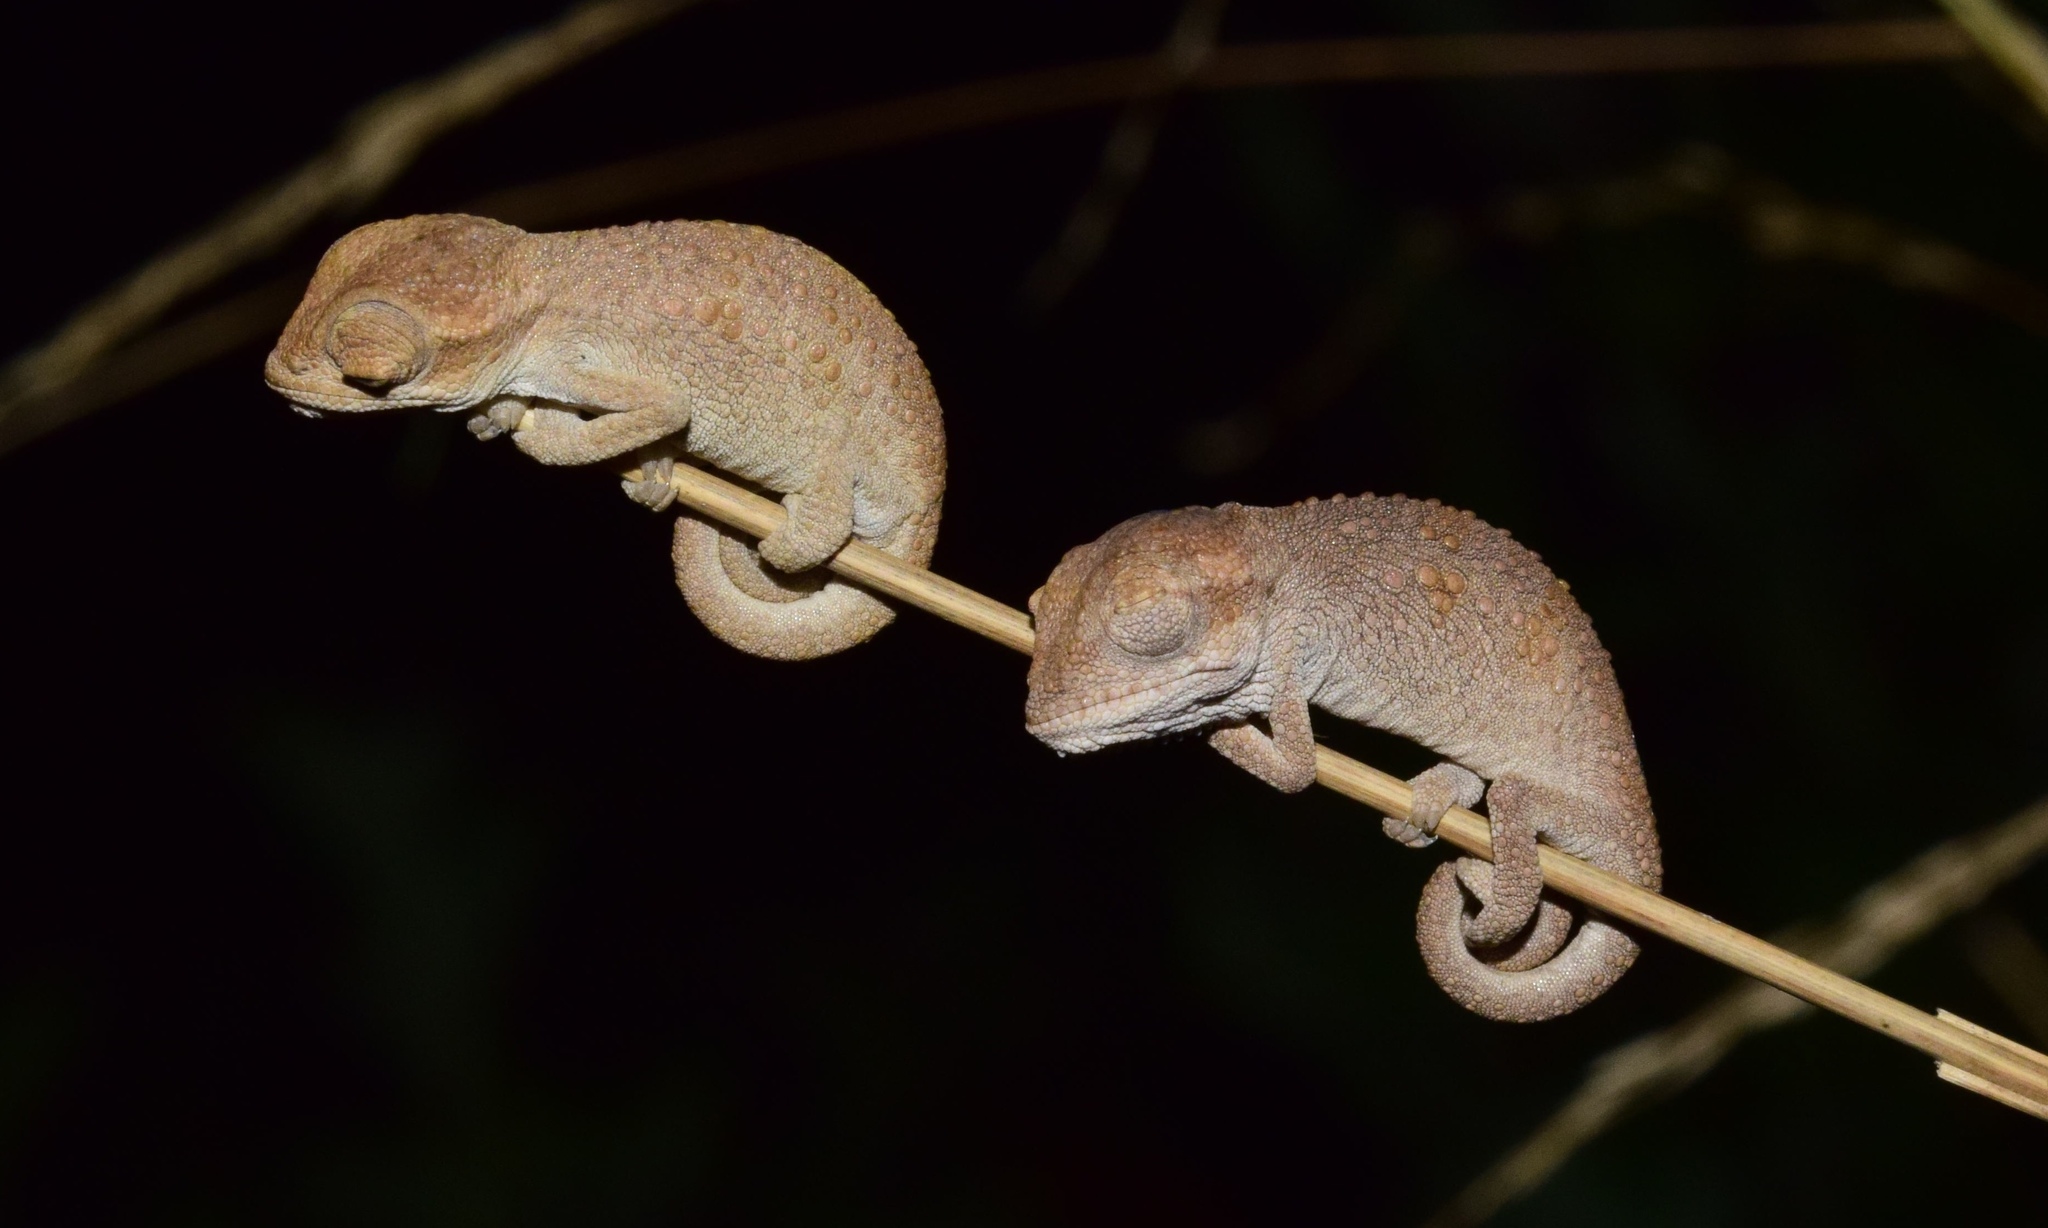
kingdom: Animalia
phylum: Chordata
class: Squamata
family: Chamaeleonidae
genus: Bradypodion
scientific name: Bradypodion melanocephalum
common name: Black-headed dwarf chameleon
